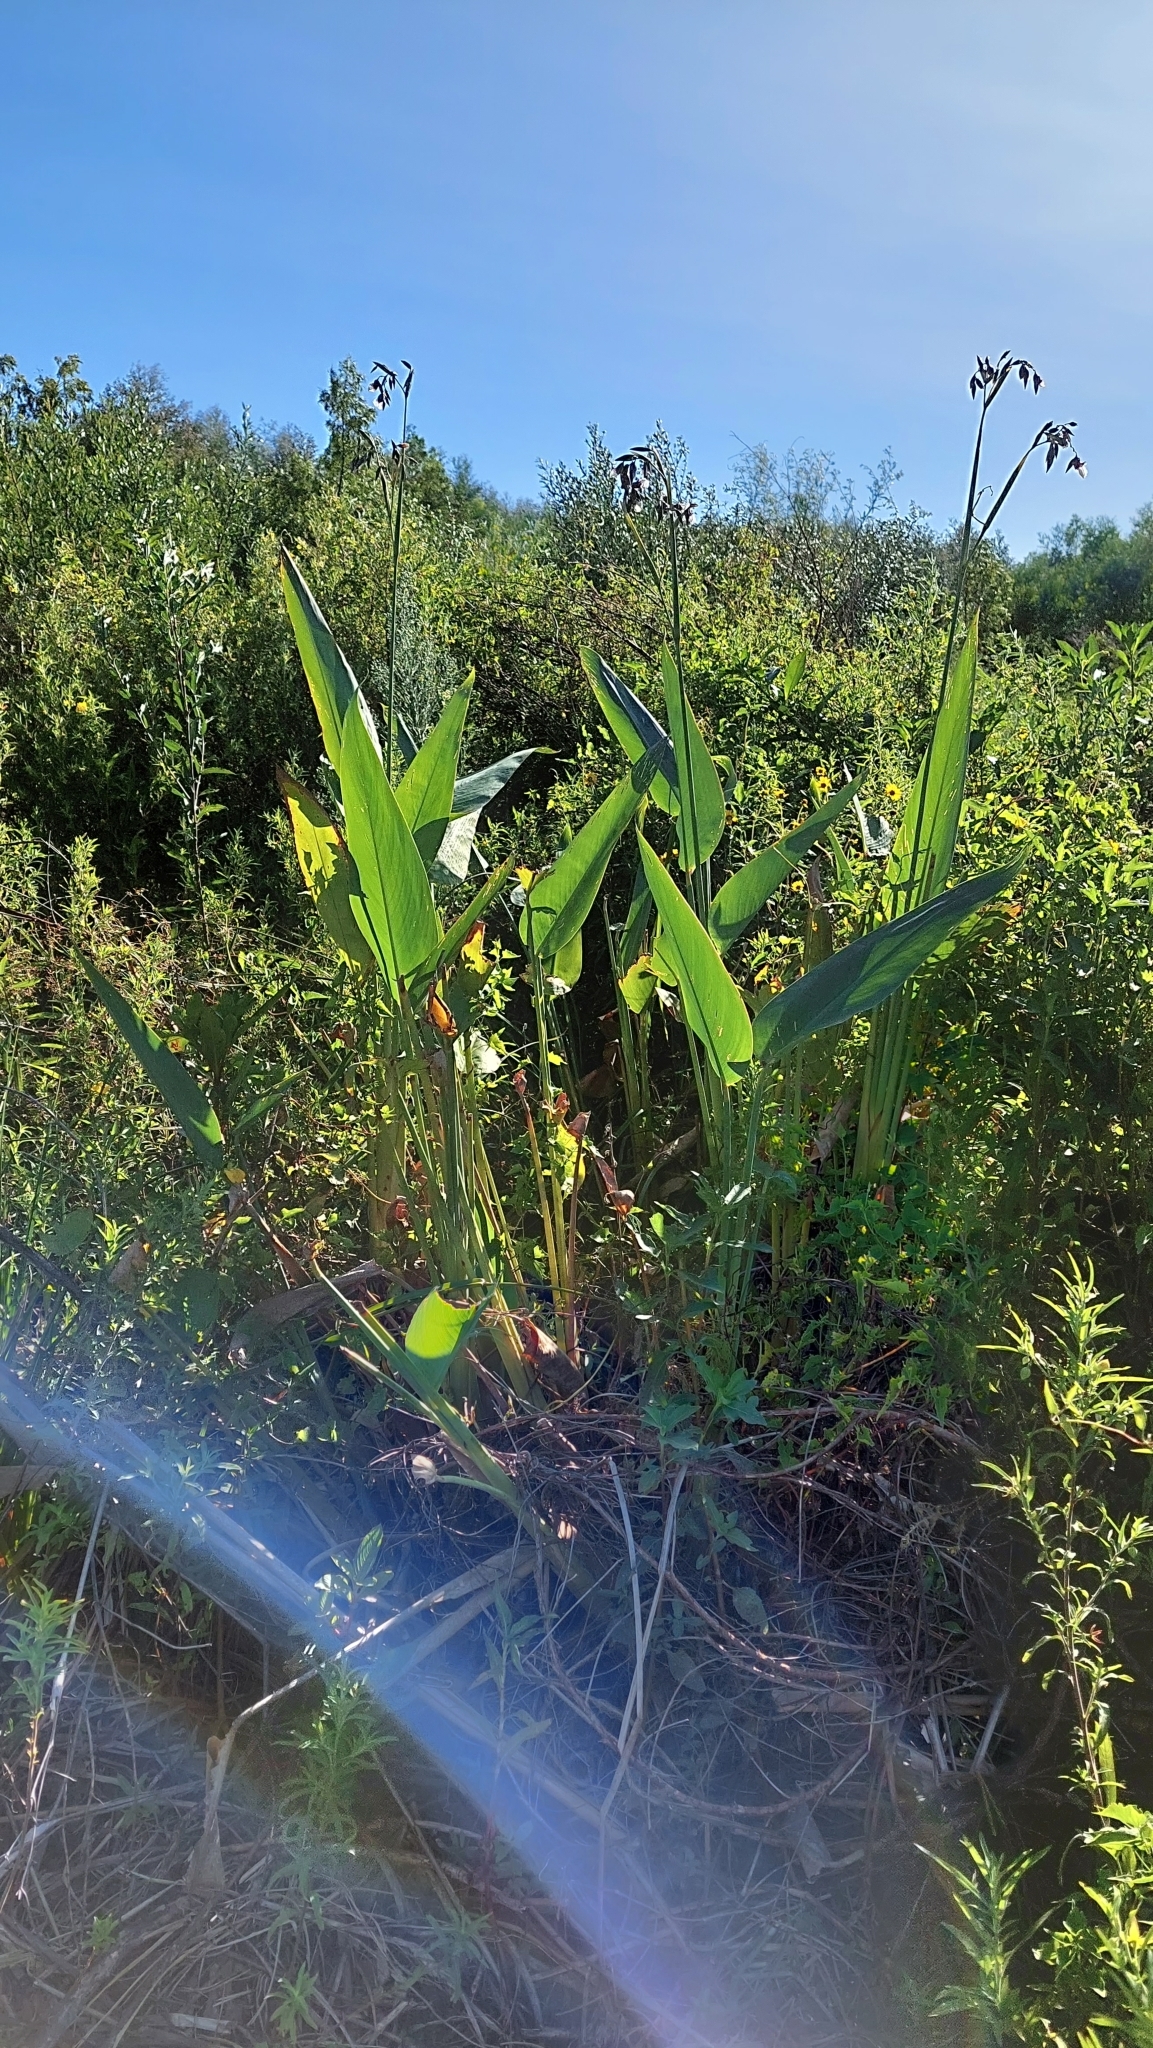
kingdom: Plantae
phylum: Tracheophyta
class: Liliopsida
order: Zingiberales
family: Marantaceae
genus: Thalia
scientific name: Thalia geniculata
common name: Arrowroot
